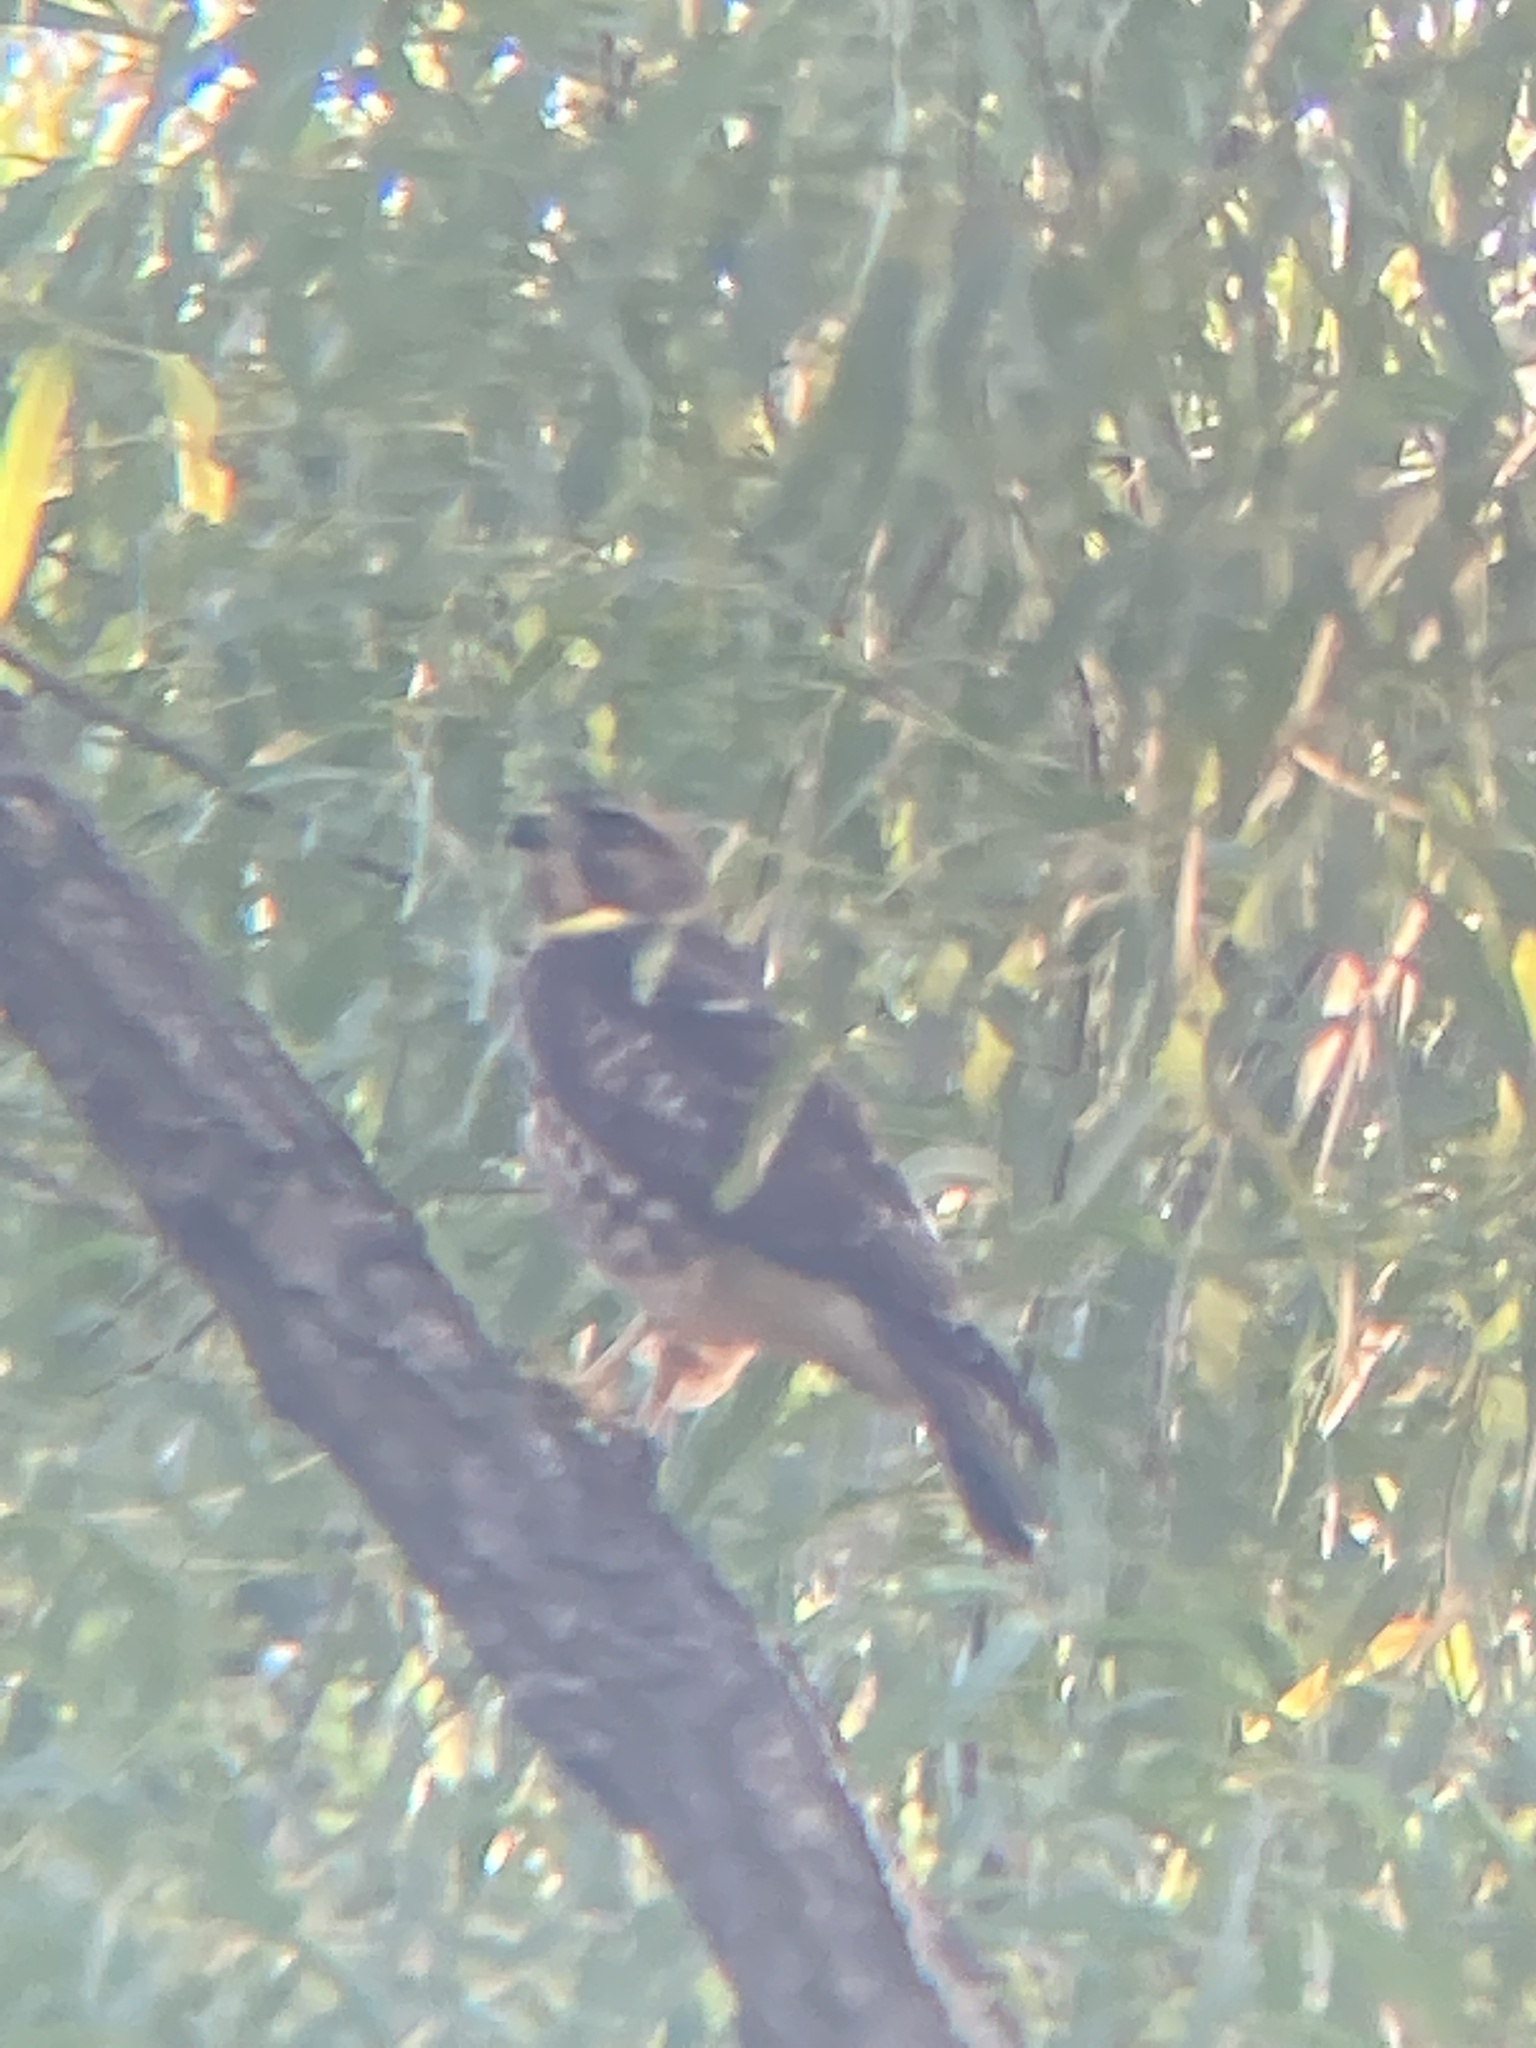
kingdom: Animalia
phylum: Chordata
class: Aves
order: Accipitriformes
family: Accipitridae
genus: Buteo
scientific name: Buteo platypterus
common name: Broad-winged hawk
